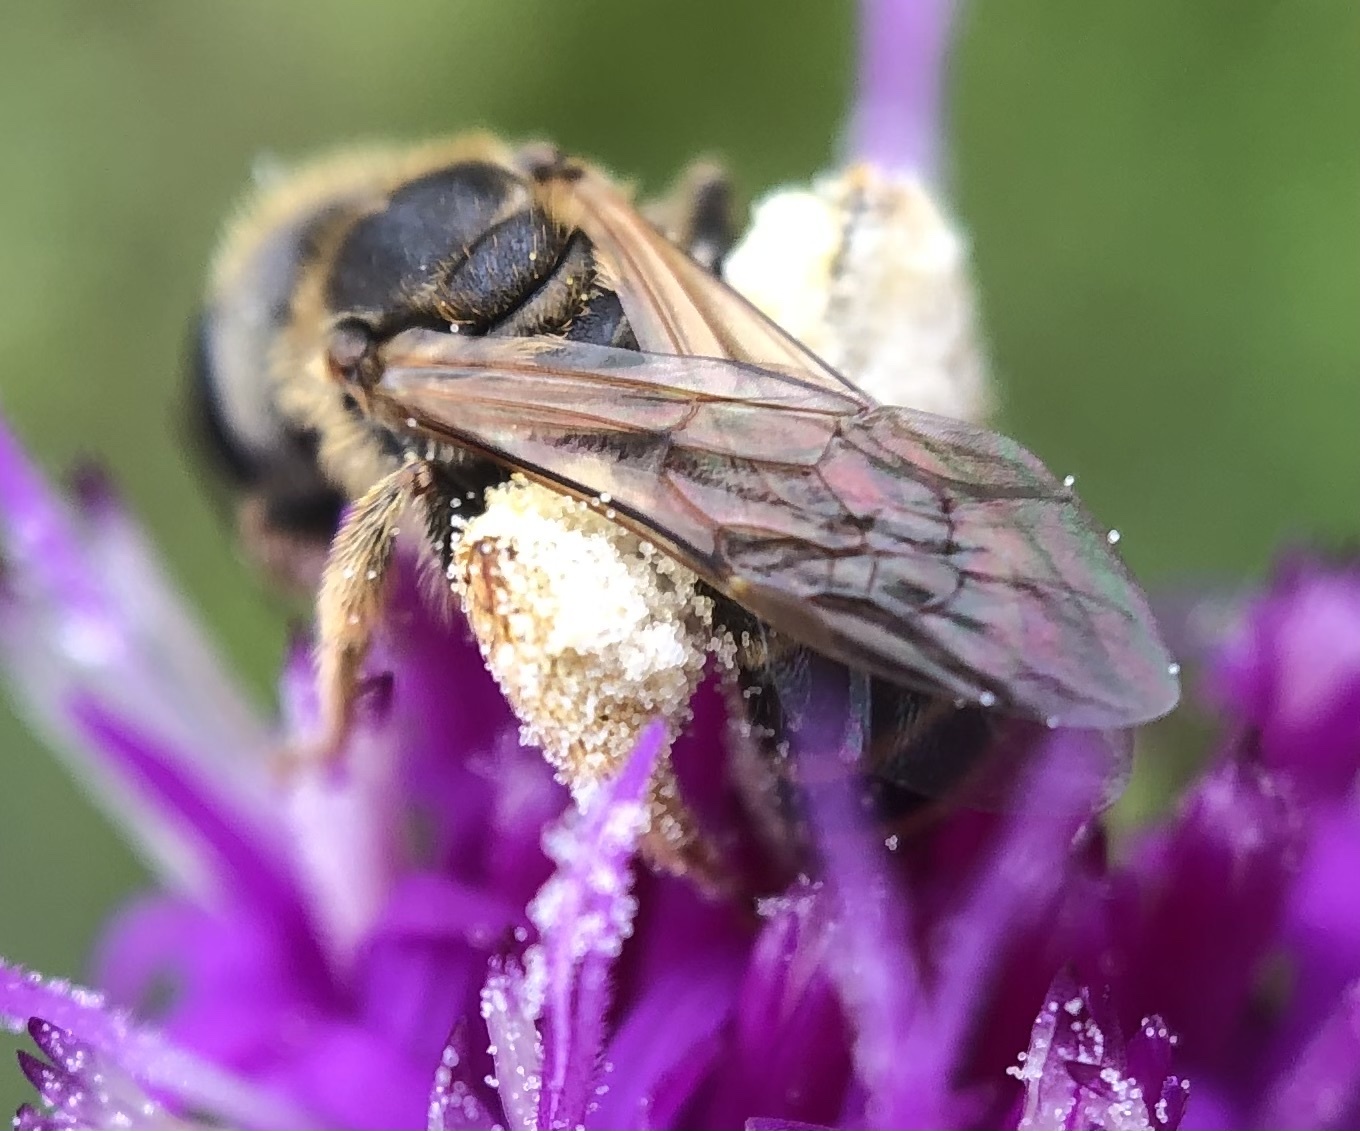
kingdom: Animalia
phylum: Arthropoda
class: Insecta
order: Hymenoptera
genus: Odontalictus
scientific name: Odontalictus
